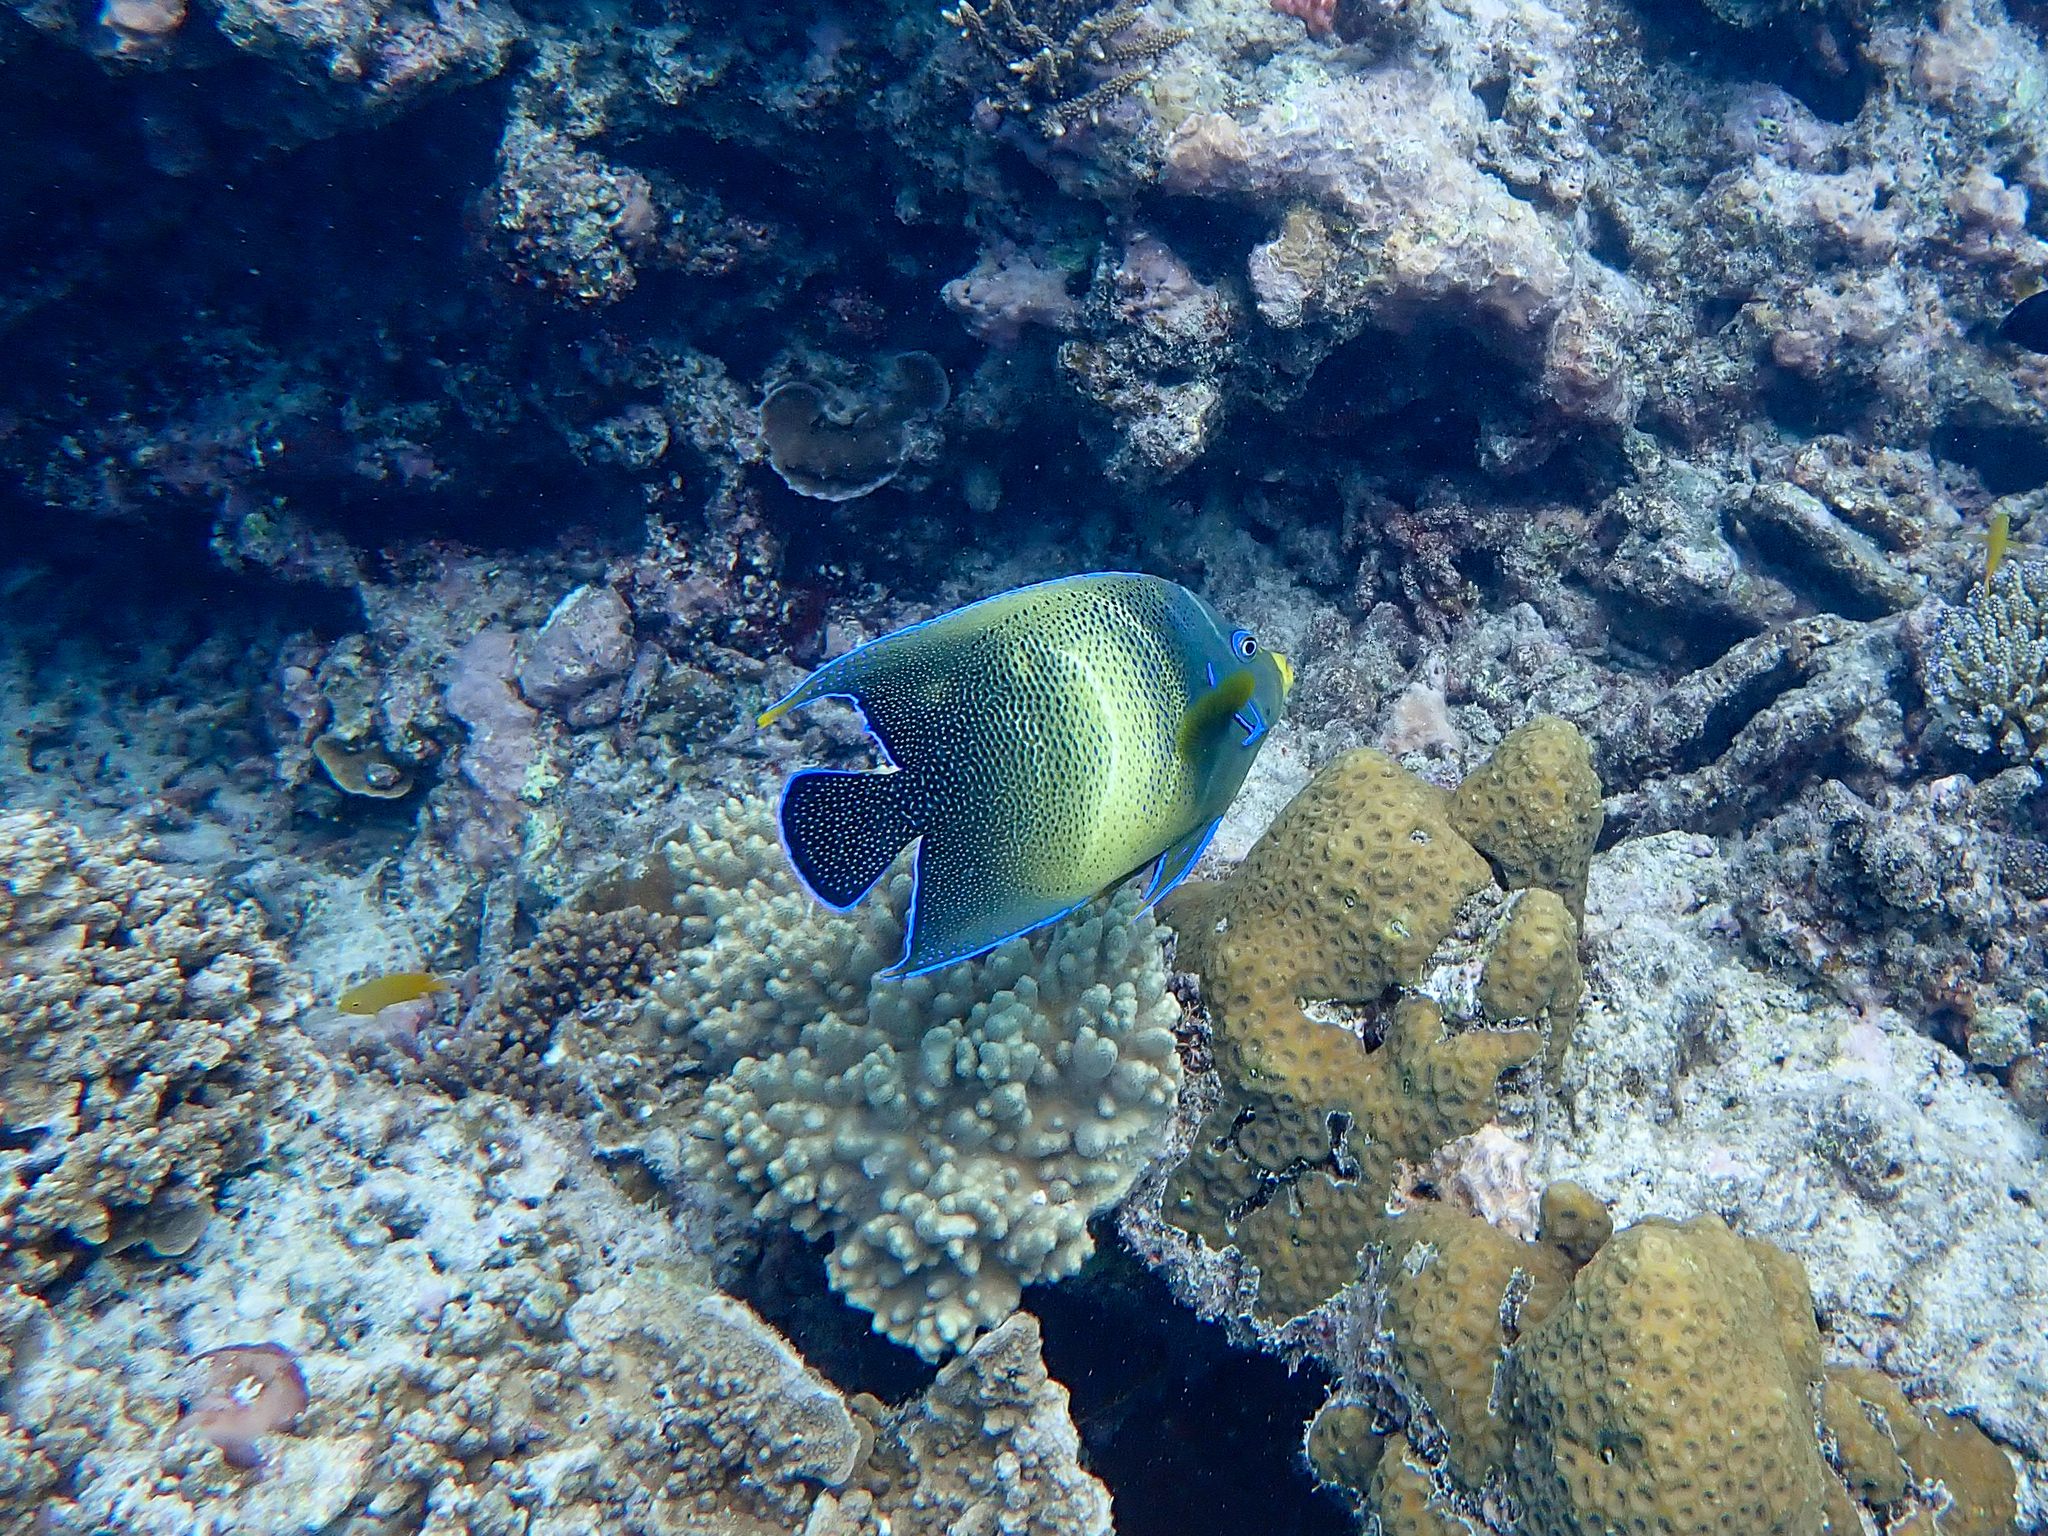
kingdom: Animalia
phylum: Chordata
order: Perciformes
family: Pomacanthidae
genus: Pomacanthus
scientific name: Pomacanthus semicirculatus
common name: Semicircle angelfish
